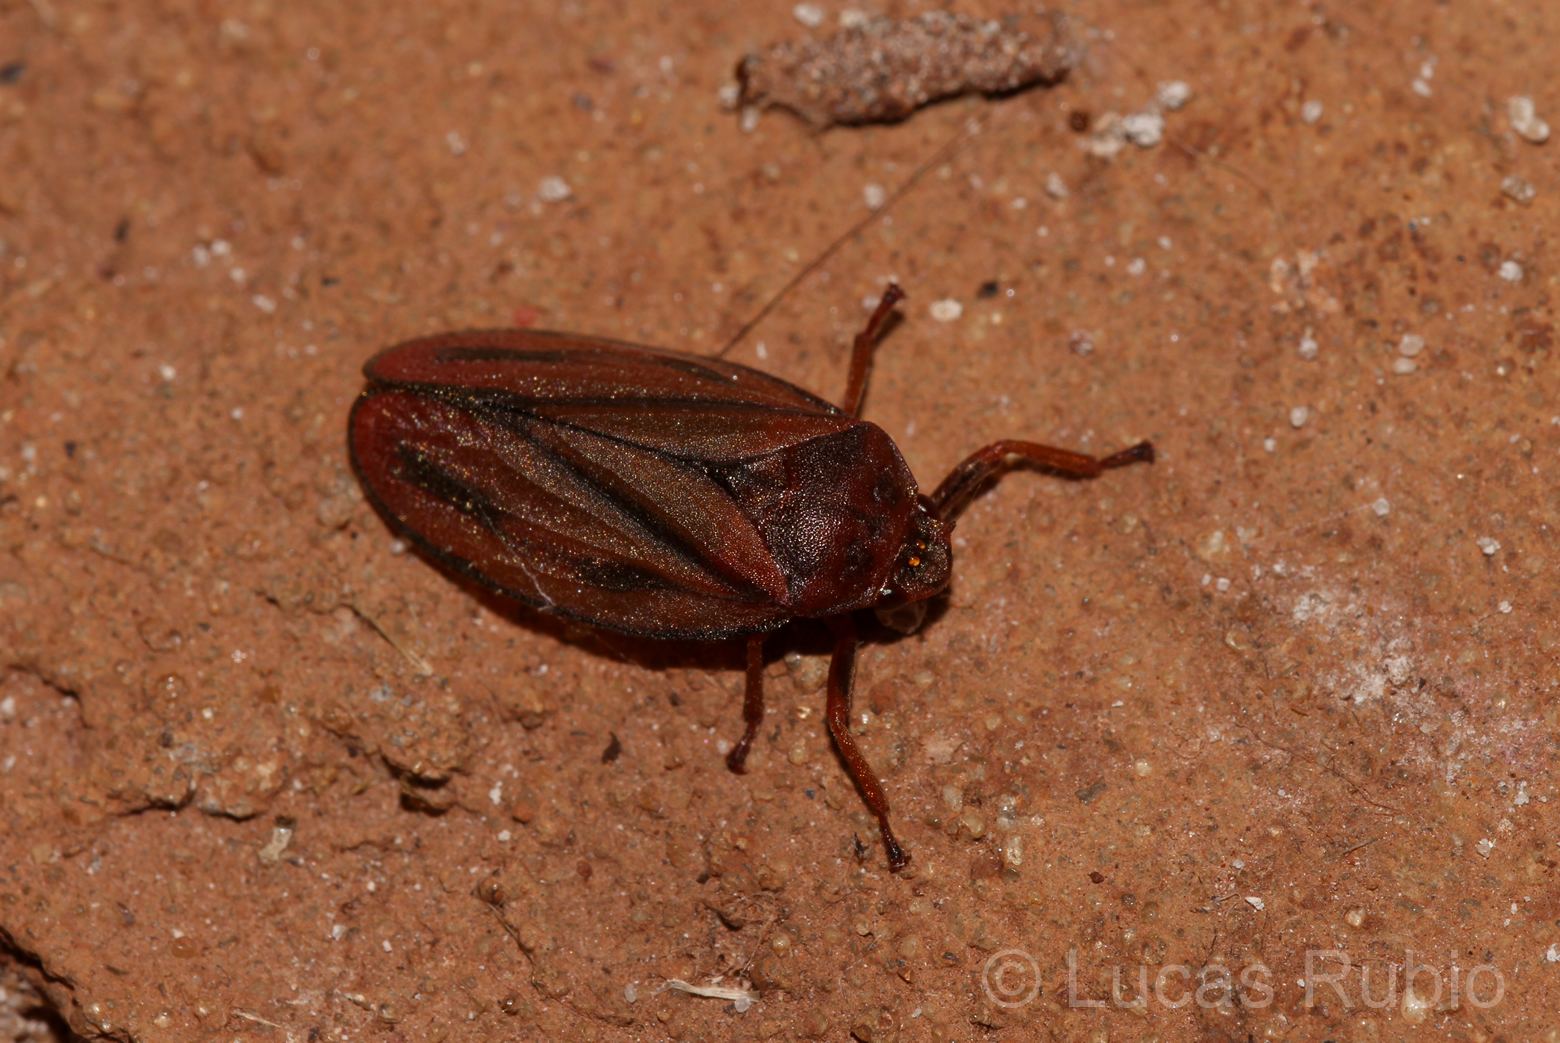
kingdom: Animalia
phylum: Arthropoda
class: Insecta
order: Hemiptera
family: Cercopidae
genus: Mahanarva
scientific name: Mahanarva fimbriolata
